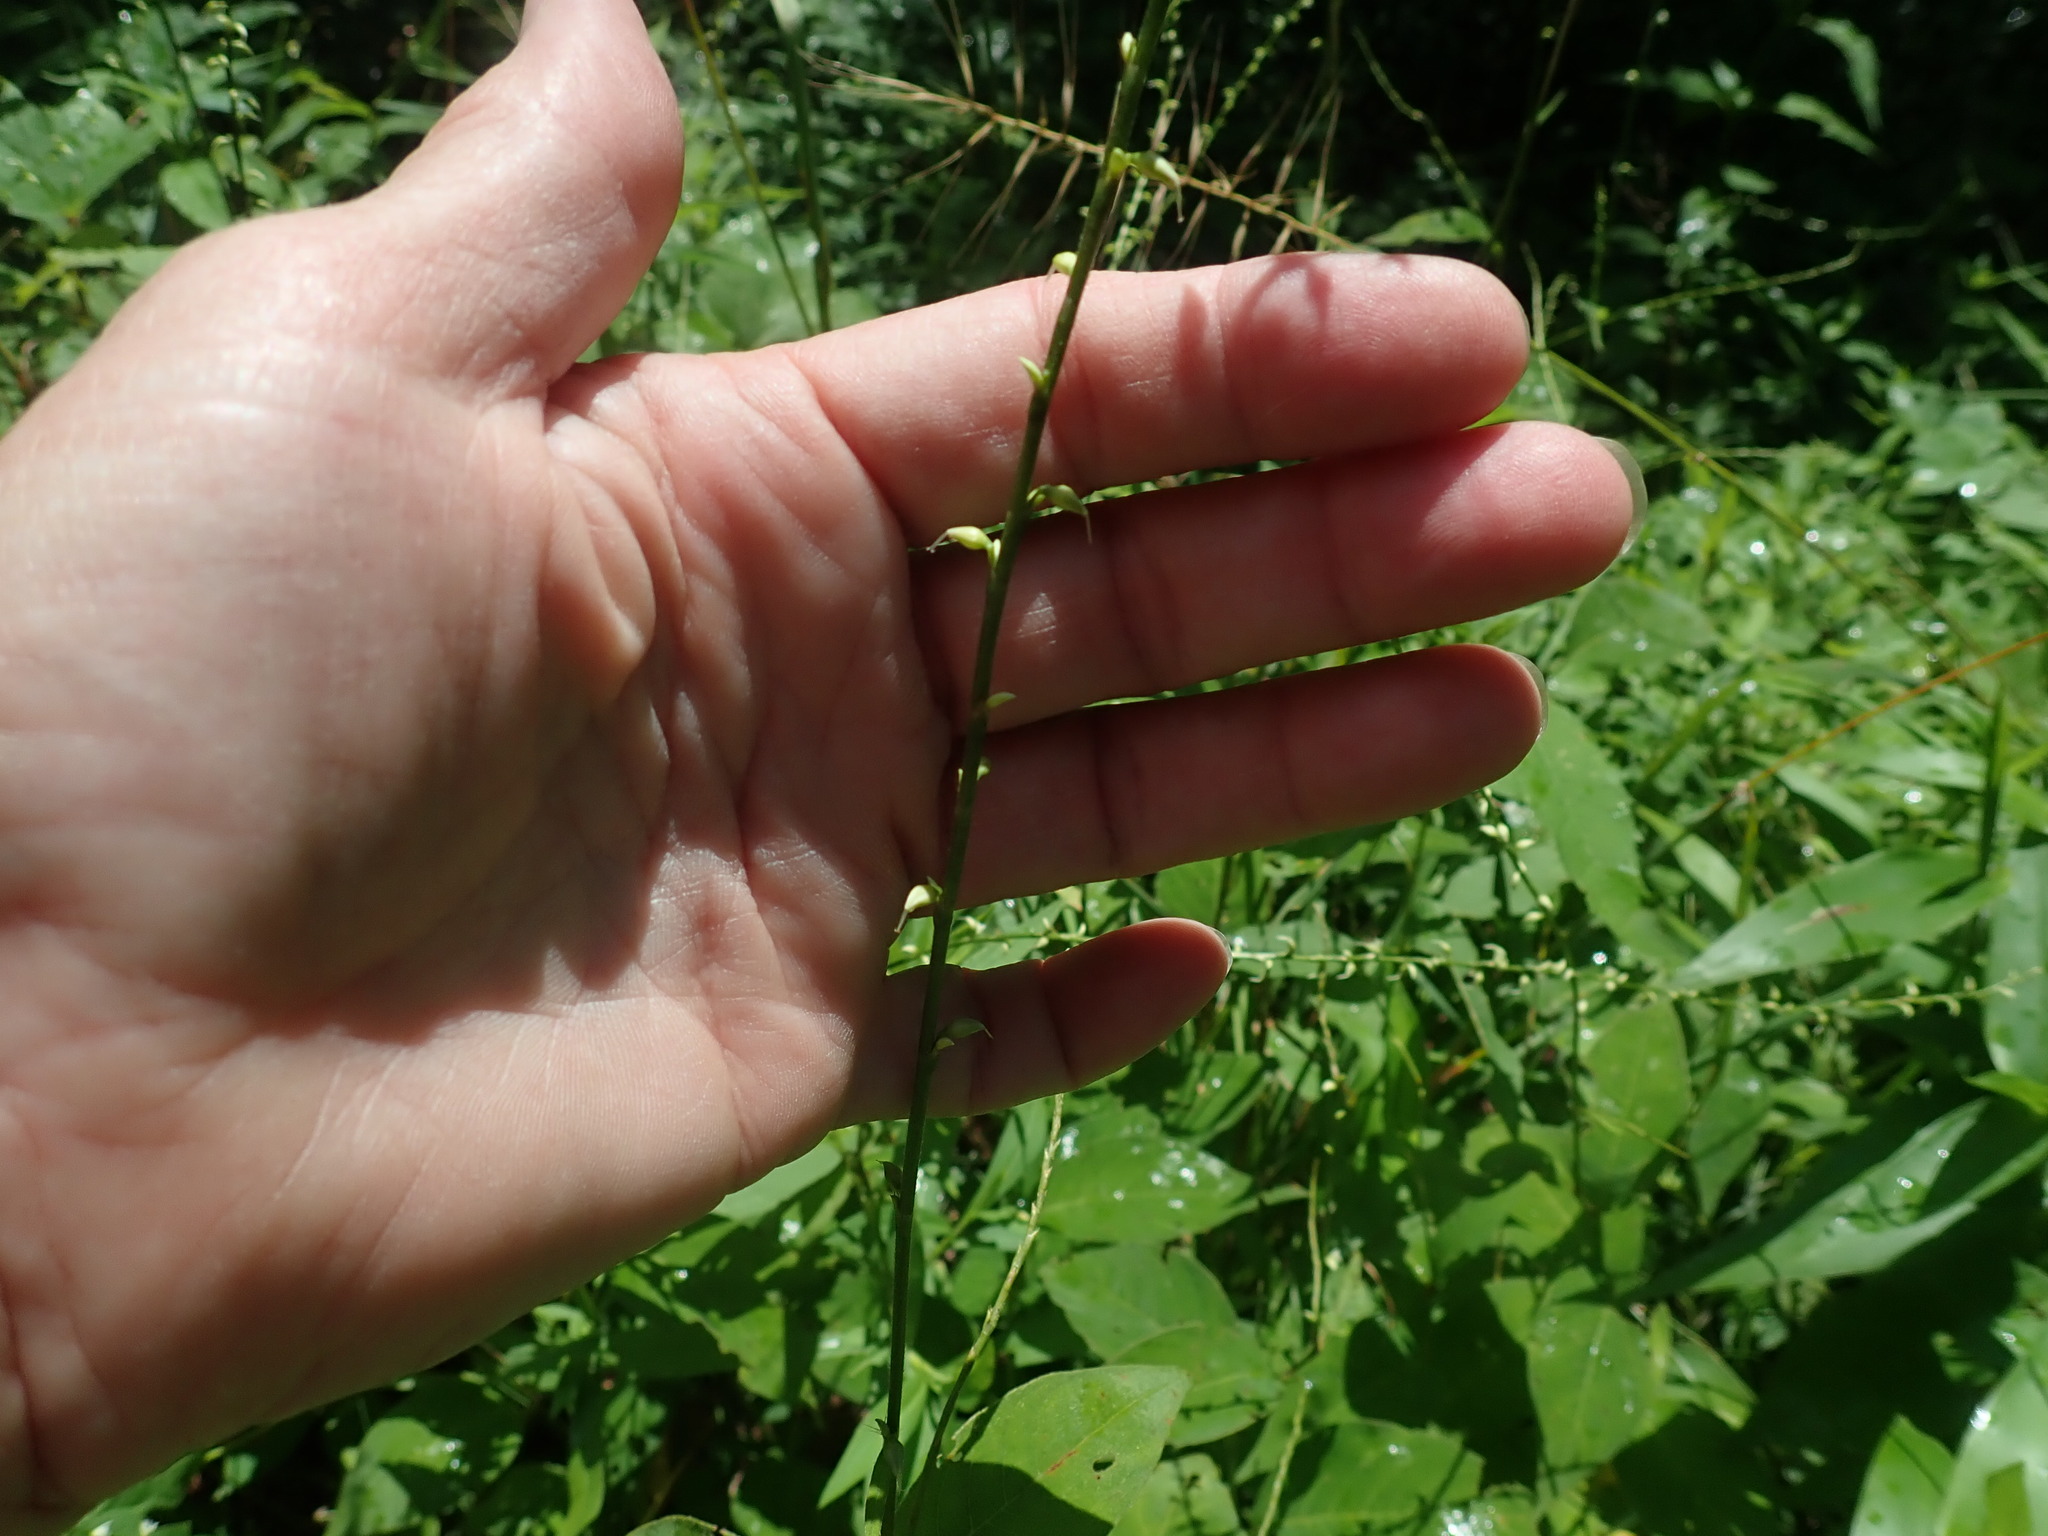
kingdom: Plantae
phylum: Tracheophyta
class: Magnoliopsida
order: Caryophyllales
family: Polygonaceae
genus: Persicaria
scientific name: Persicaria virginiana
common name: Jumpseed
